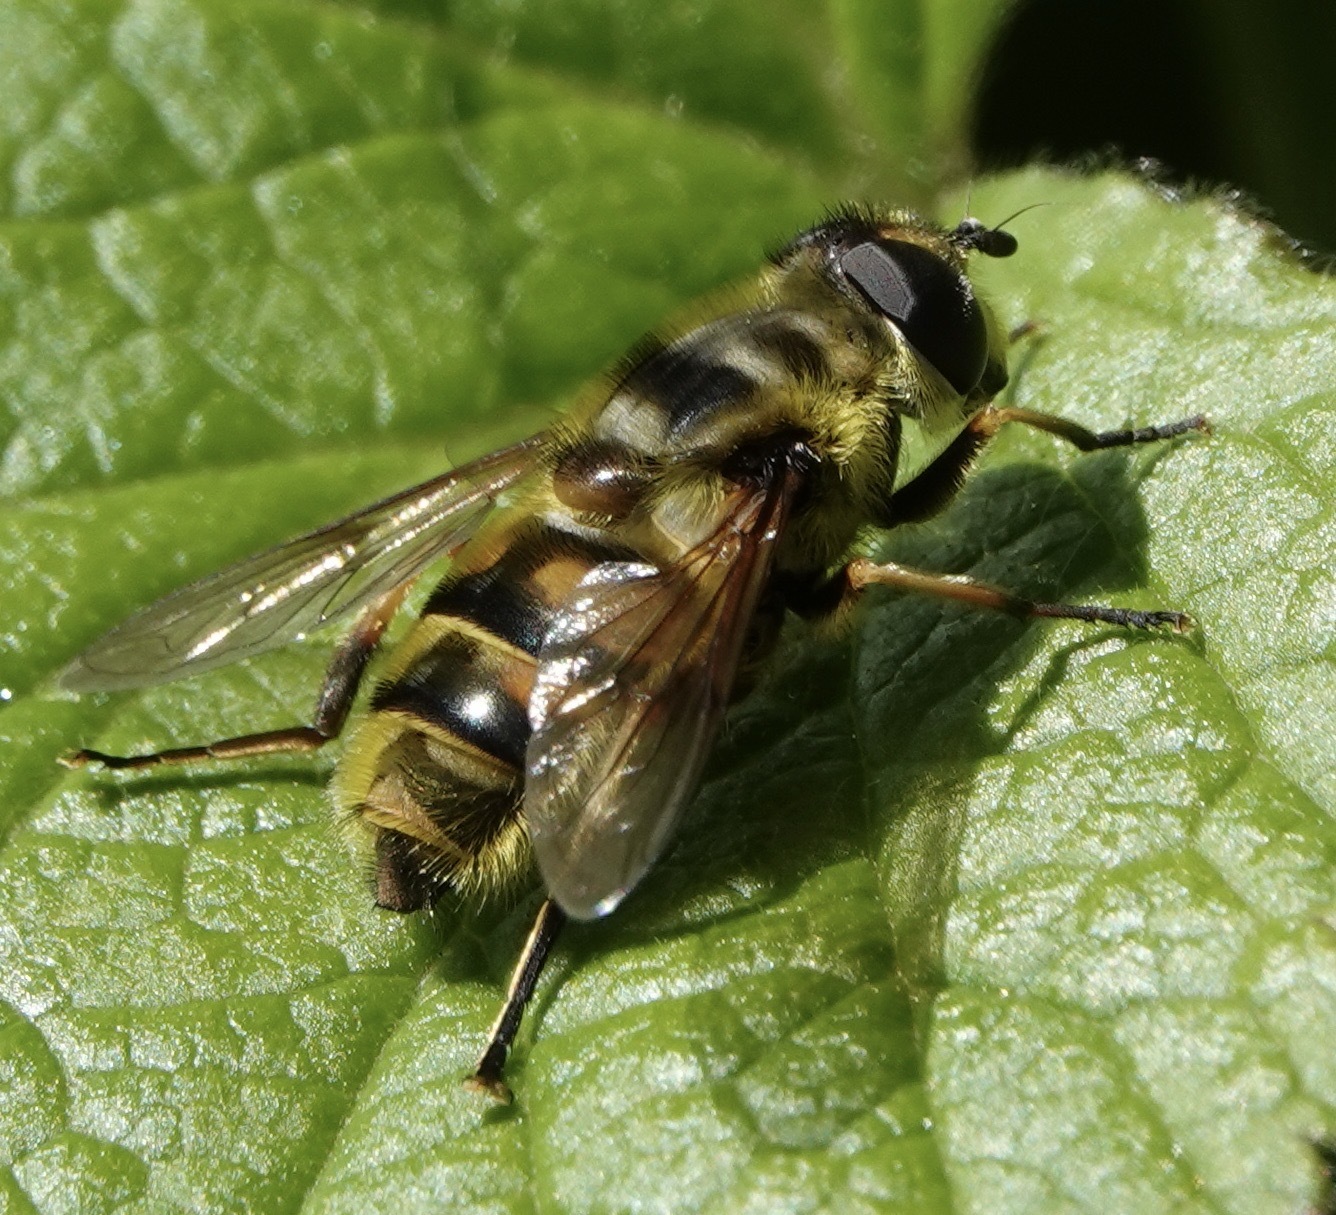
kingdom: Animalia
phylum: Arthropoda
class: Insecta
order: Diptera
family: Syrphidae
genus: Myathropa
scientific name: Myathropa florea
